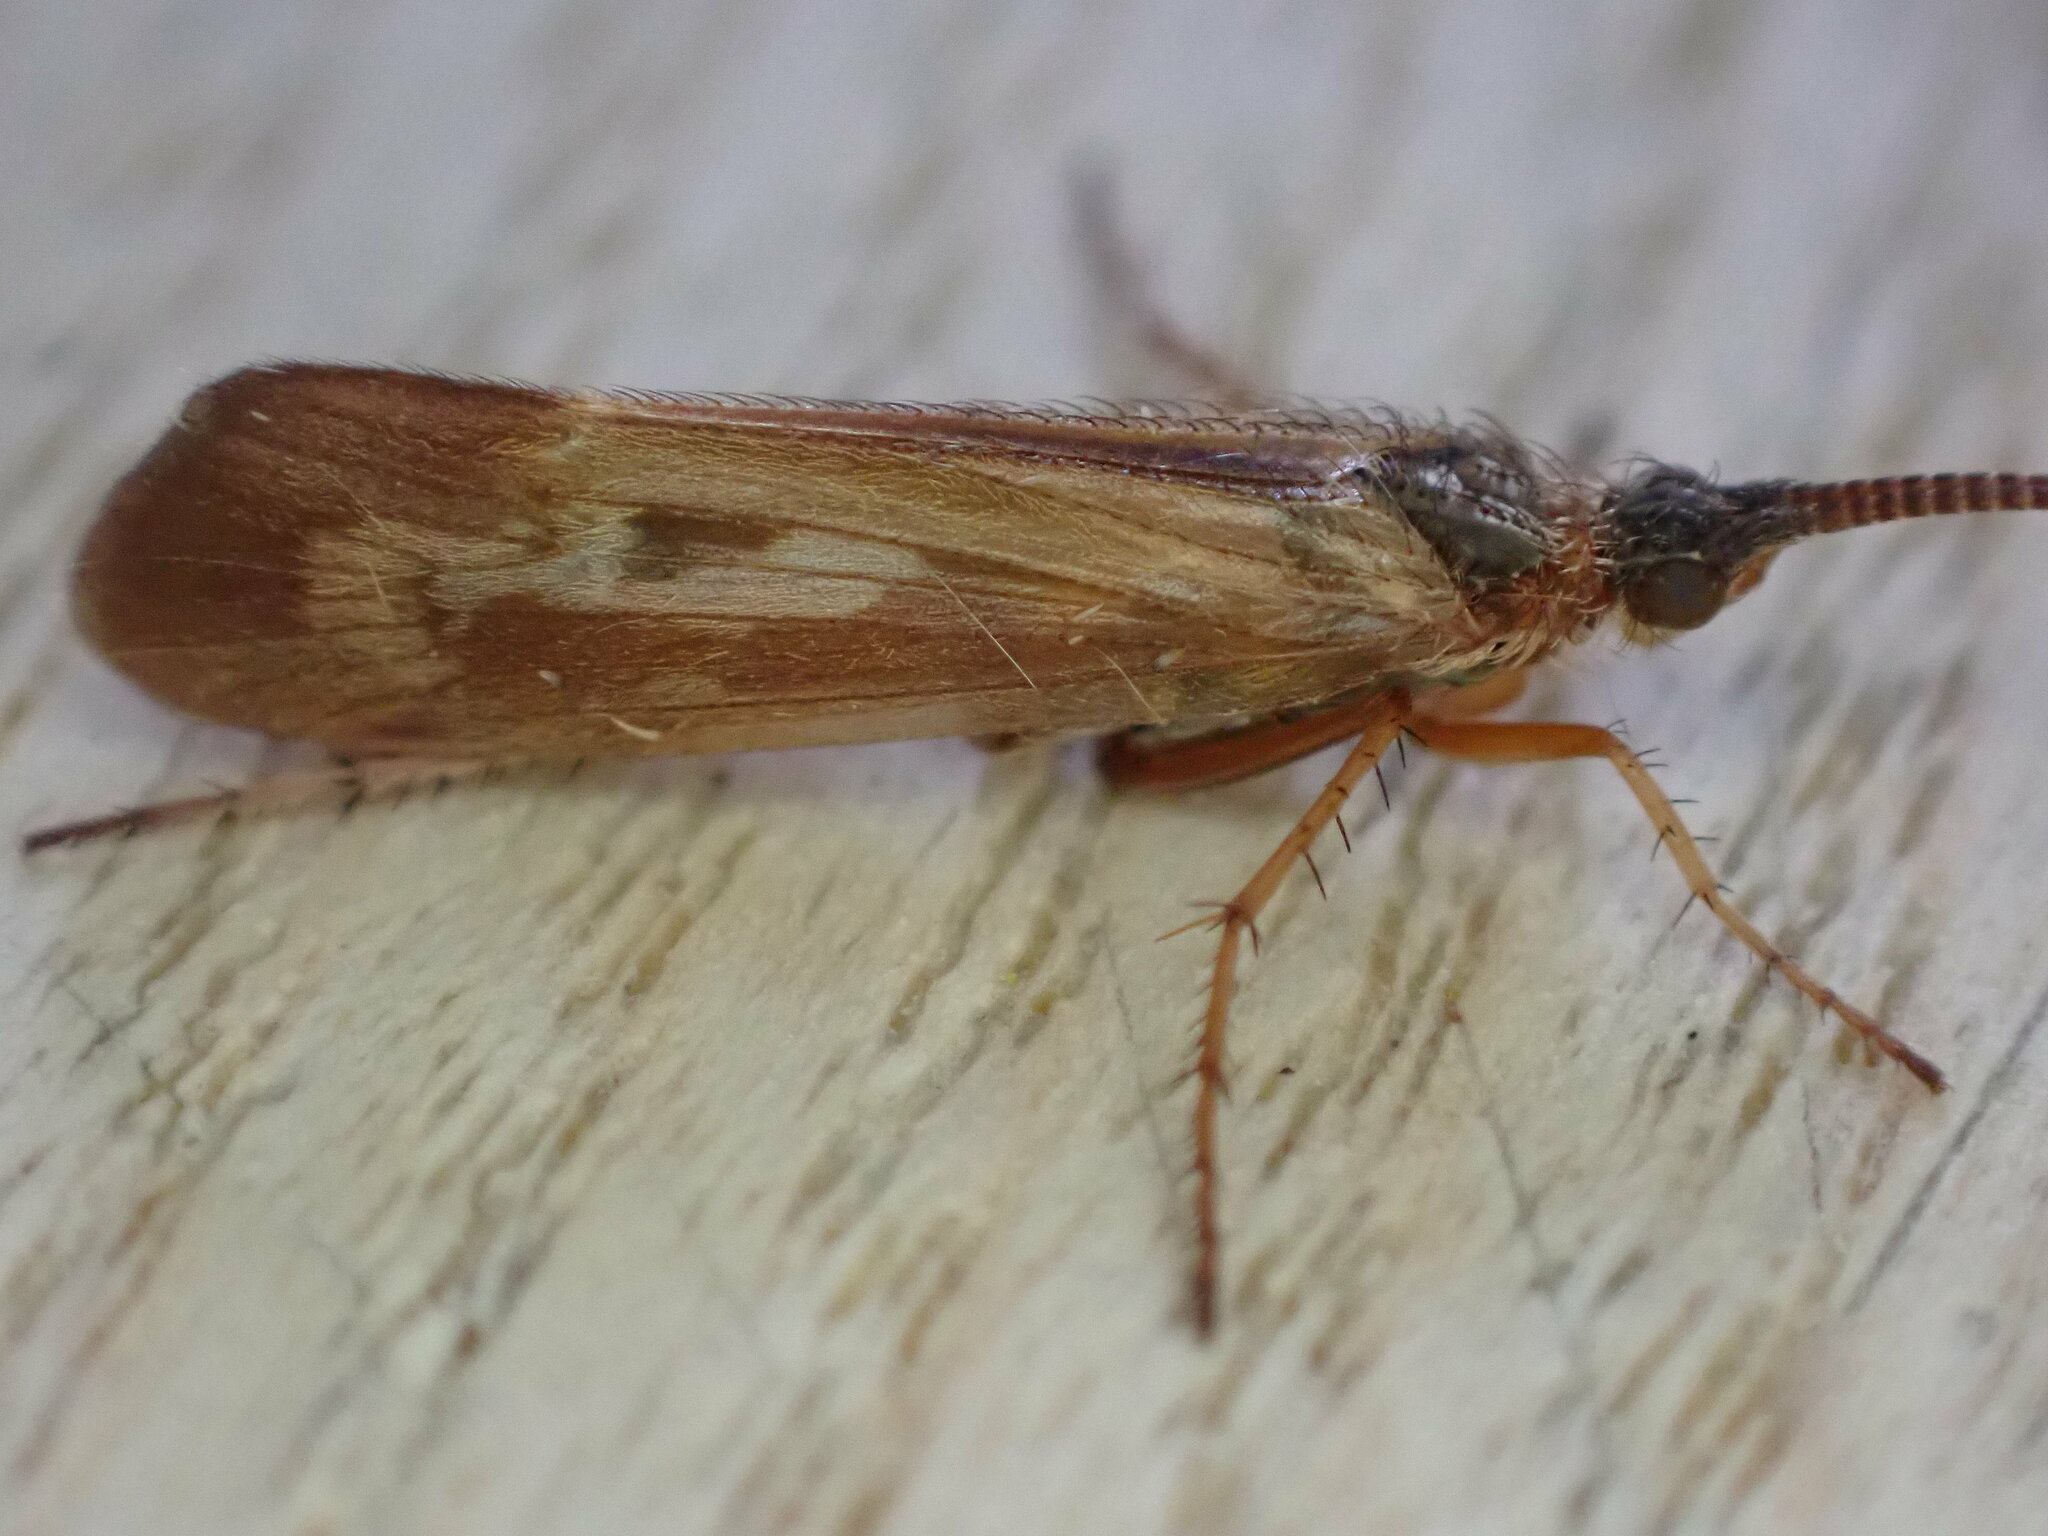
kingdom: Animalia
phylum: Arthropoda
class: Insecta
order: Trichoptera
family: Limnephilidae
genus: Limnephilus
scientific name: Limnephilus auricula
